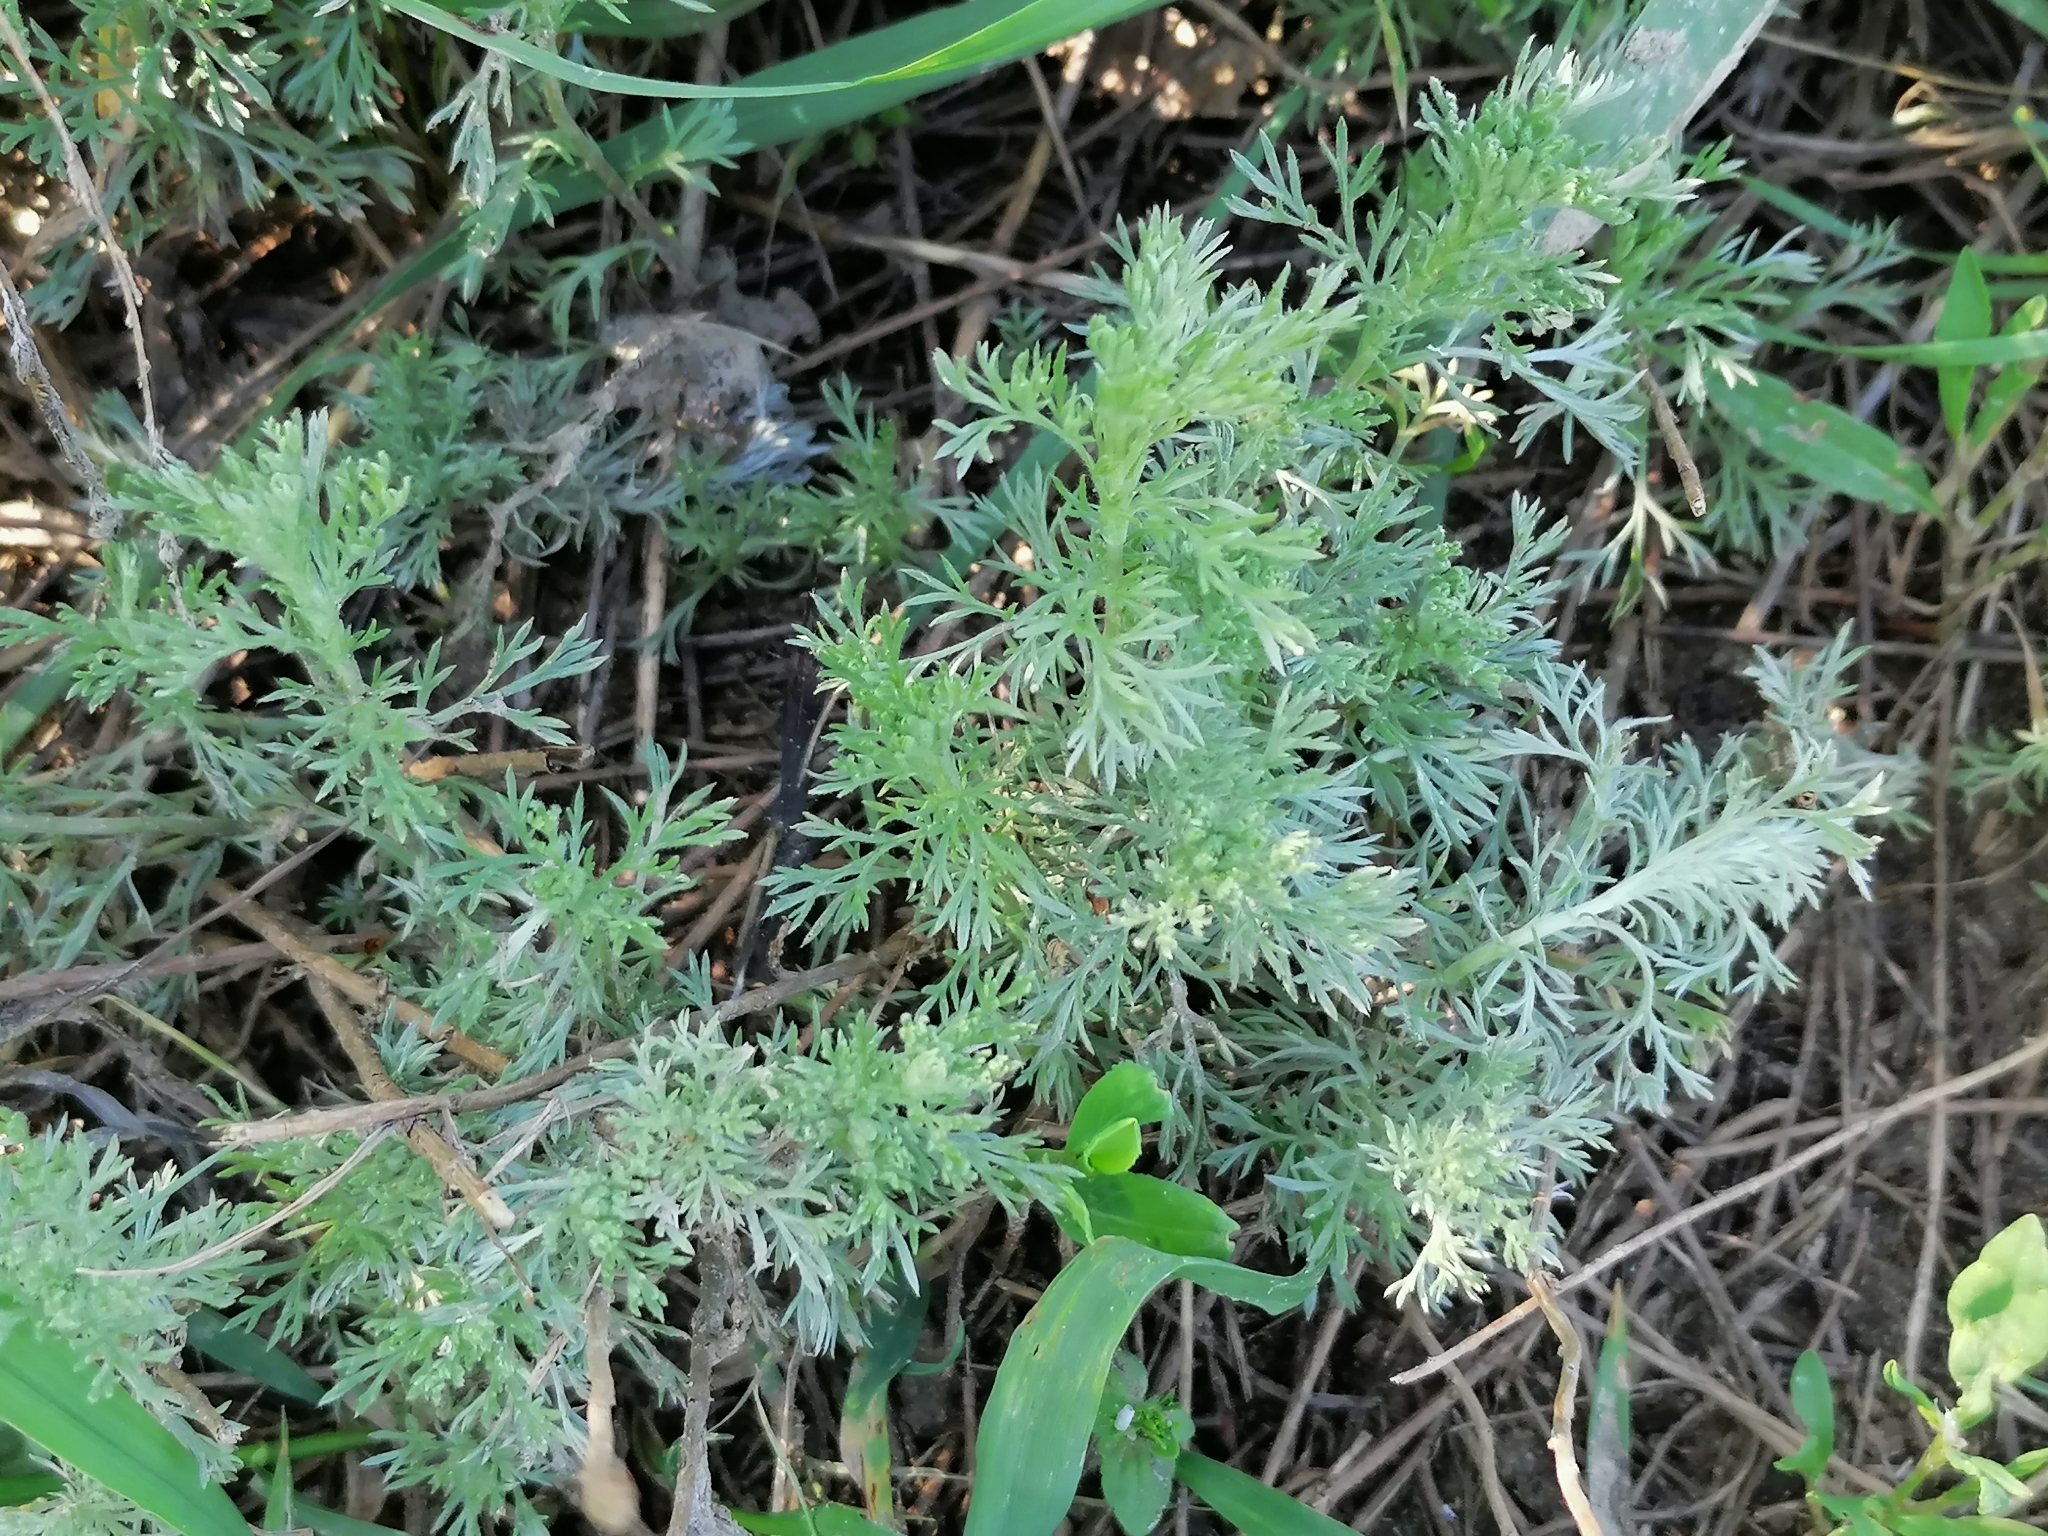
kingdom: Plantae
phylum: Tracheophyta
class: Magnoliopsida
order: Asterales
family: Asteraceae
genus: Artemisia
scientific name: Artemisia austriaca
